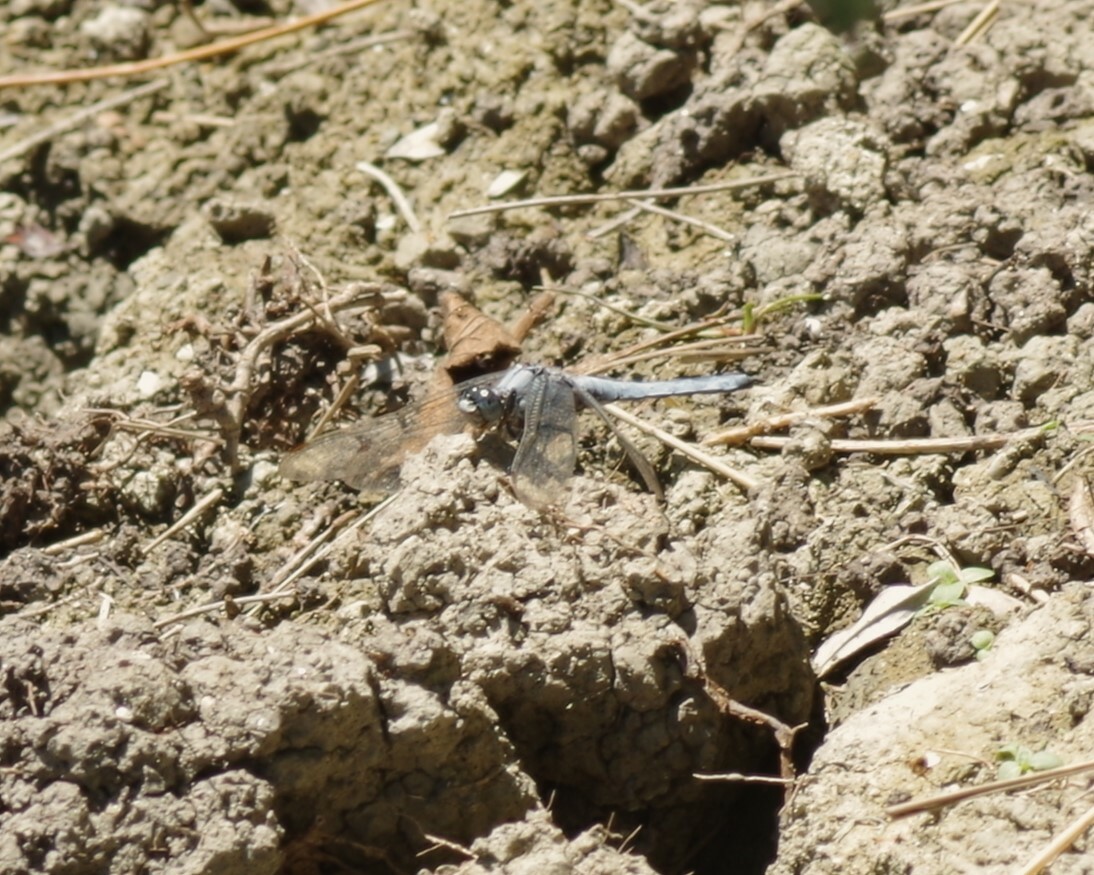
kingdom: Animalia
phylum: Arthropoda
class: Insecta
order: Odonata
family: Libellulidae
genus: Orthetrum
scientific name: Orthetrum brunneum
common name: Southern skimmer
